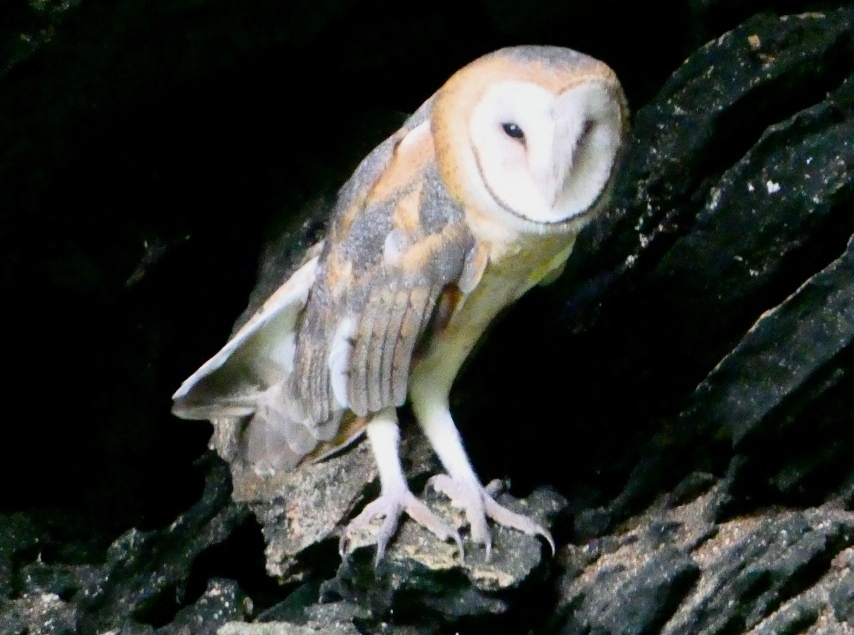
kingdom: Animalia
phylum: Chordata
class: Aves
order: Strigiformes
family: Tytonidae
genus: Tyto
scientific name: Tyto furcata
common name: American barn owl
